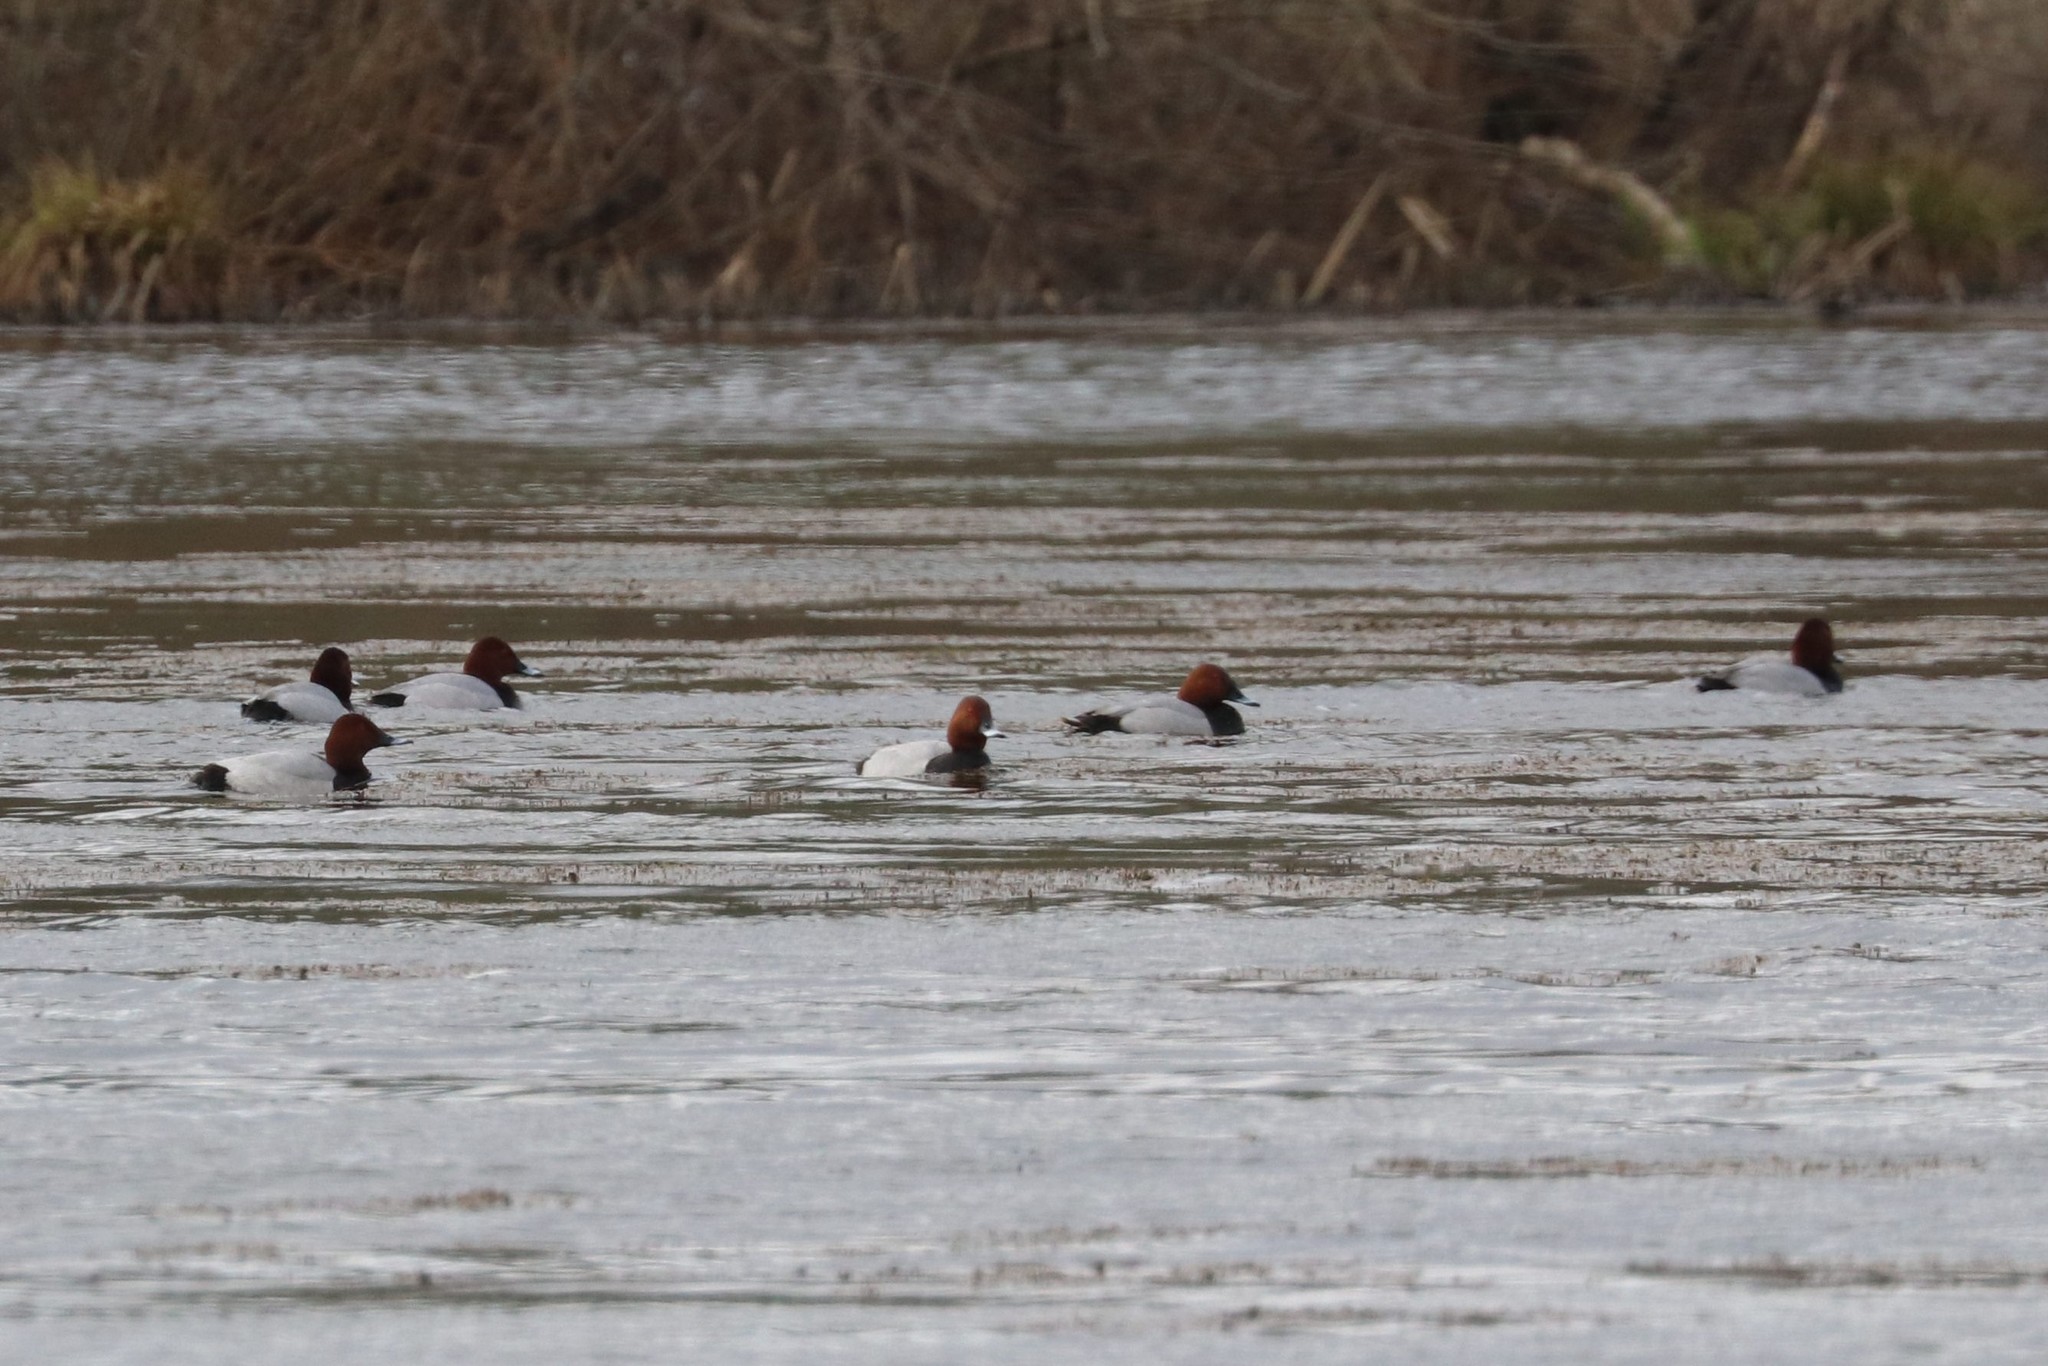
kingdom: Animalia
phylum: Chordata
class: Aves
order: Anseriformes
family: Anatidae
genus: Aythya
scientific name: Aythya ferina
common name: Common pochard
